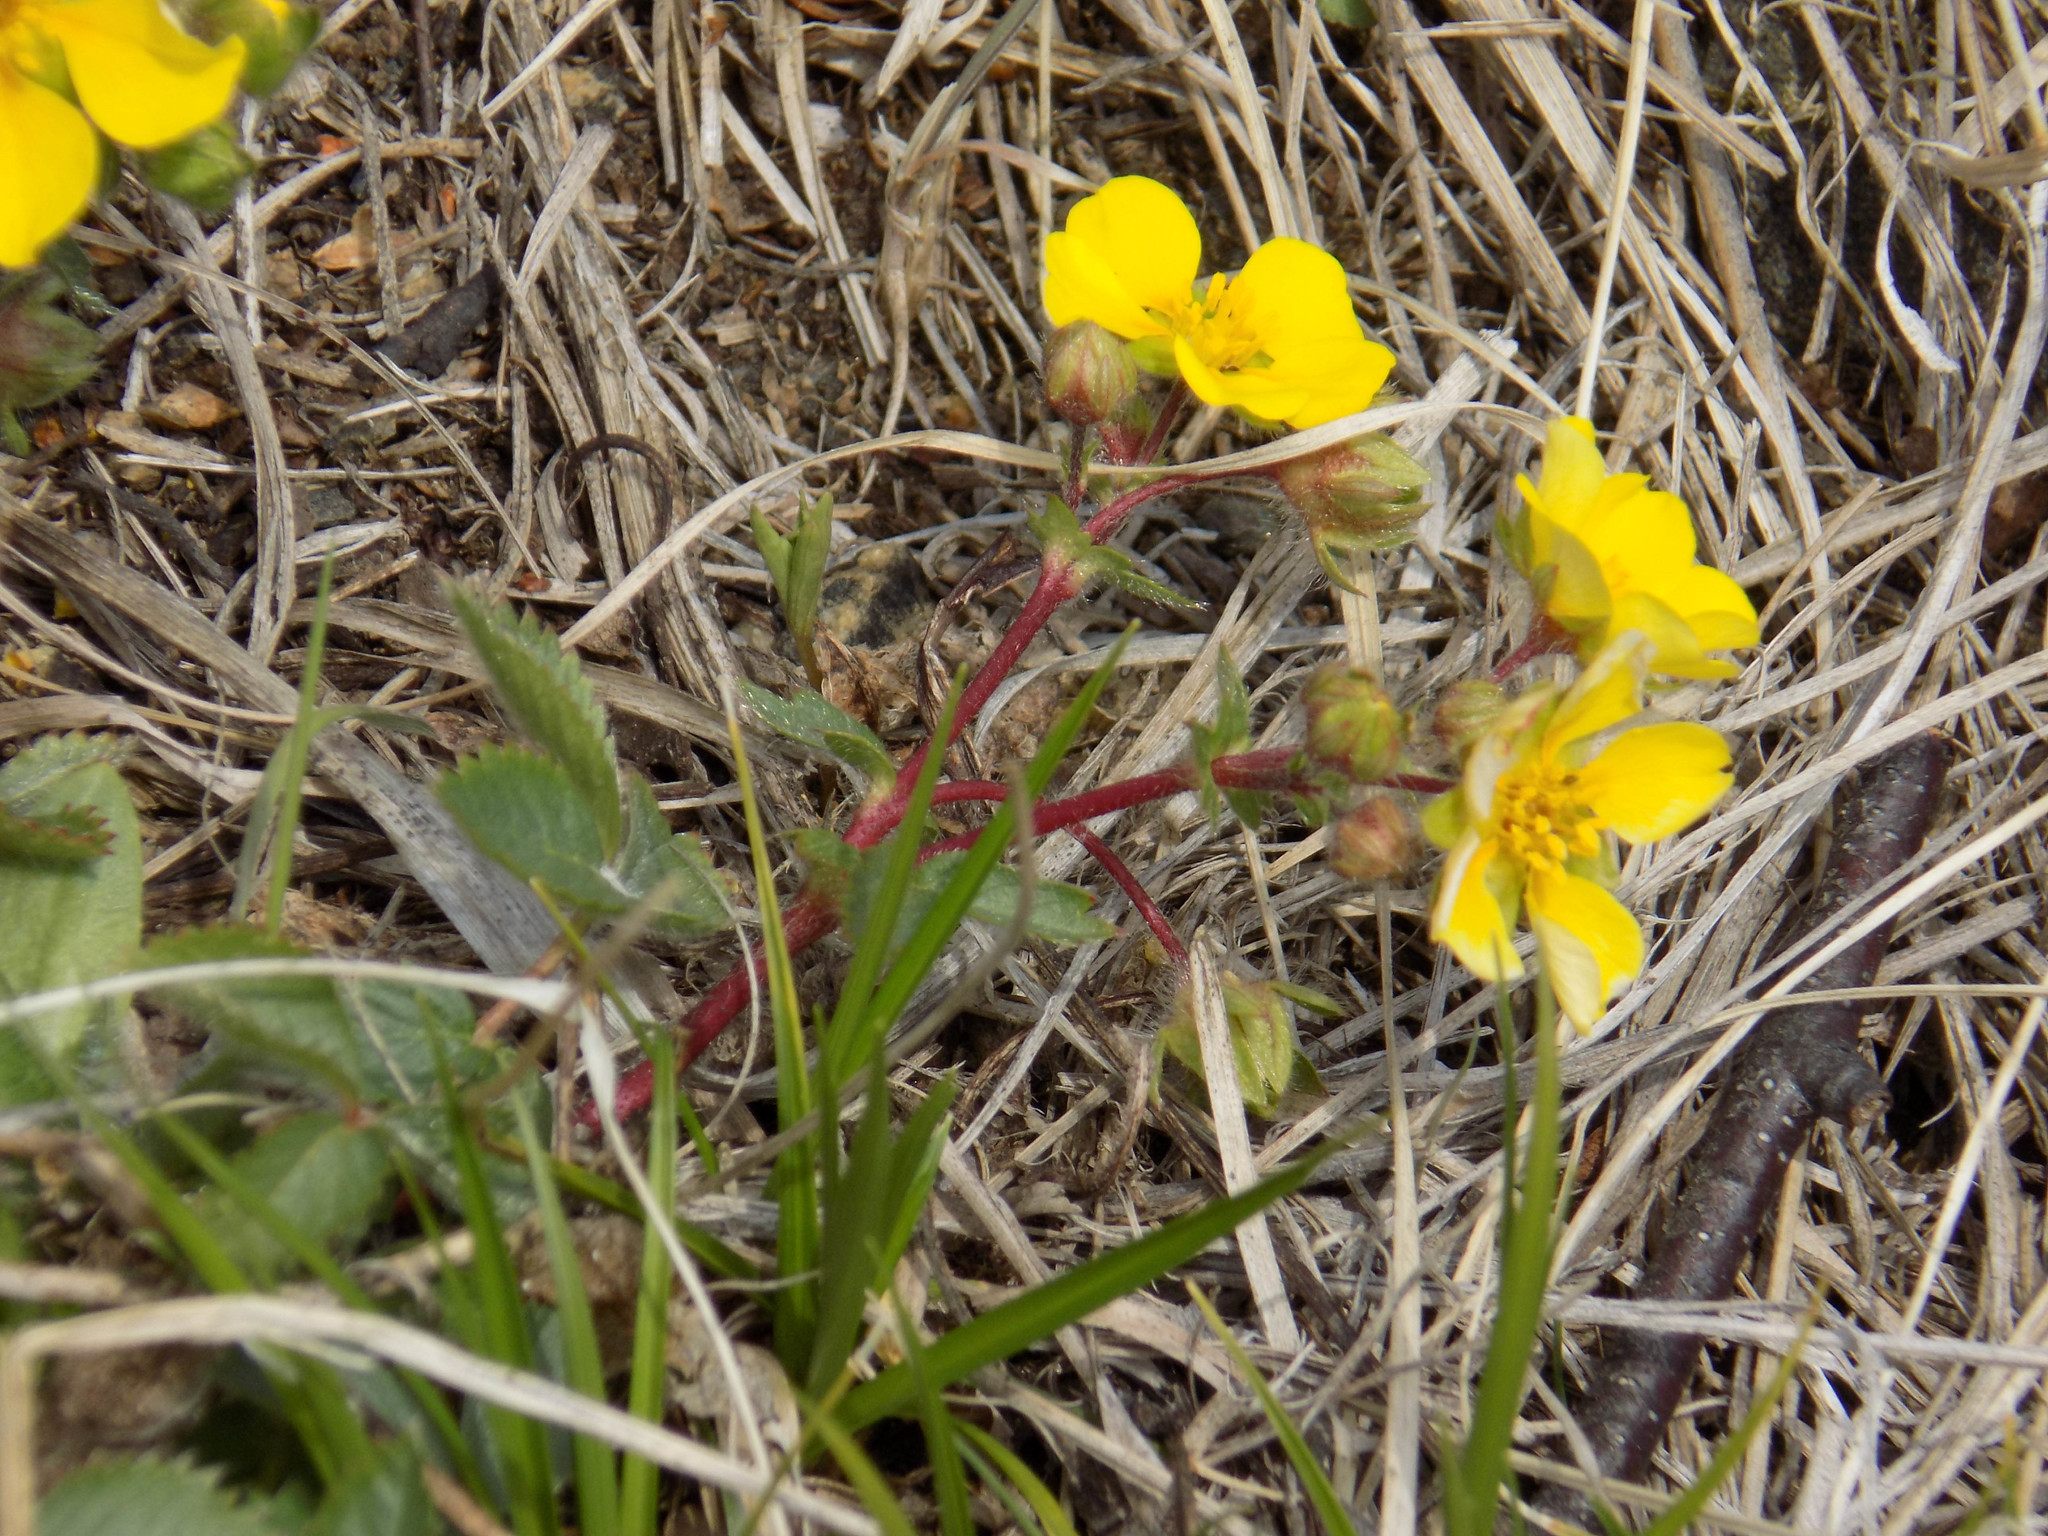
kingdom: Plantae
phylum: Tracheophyta
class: Magnoliopsida
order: Rosales
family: Rosaceae
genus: Potentilla
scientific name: Potentilla fragarioides
